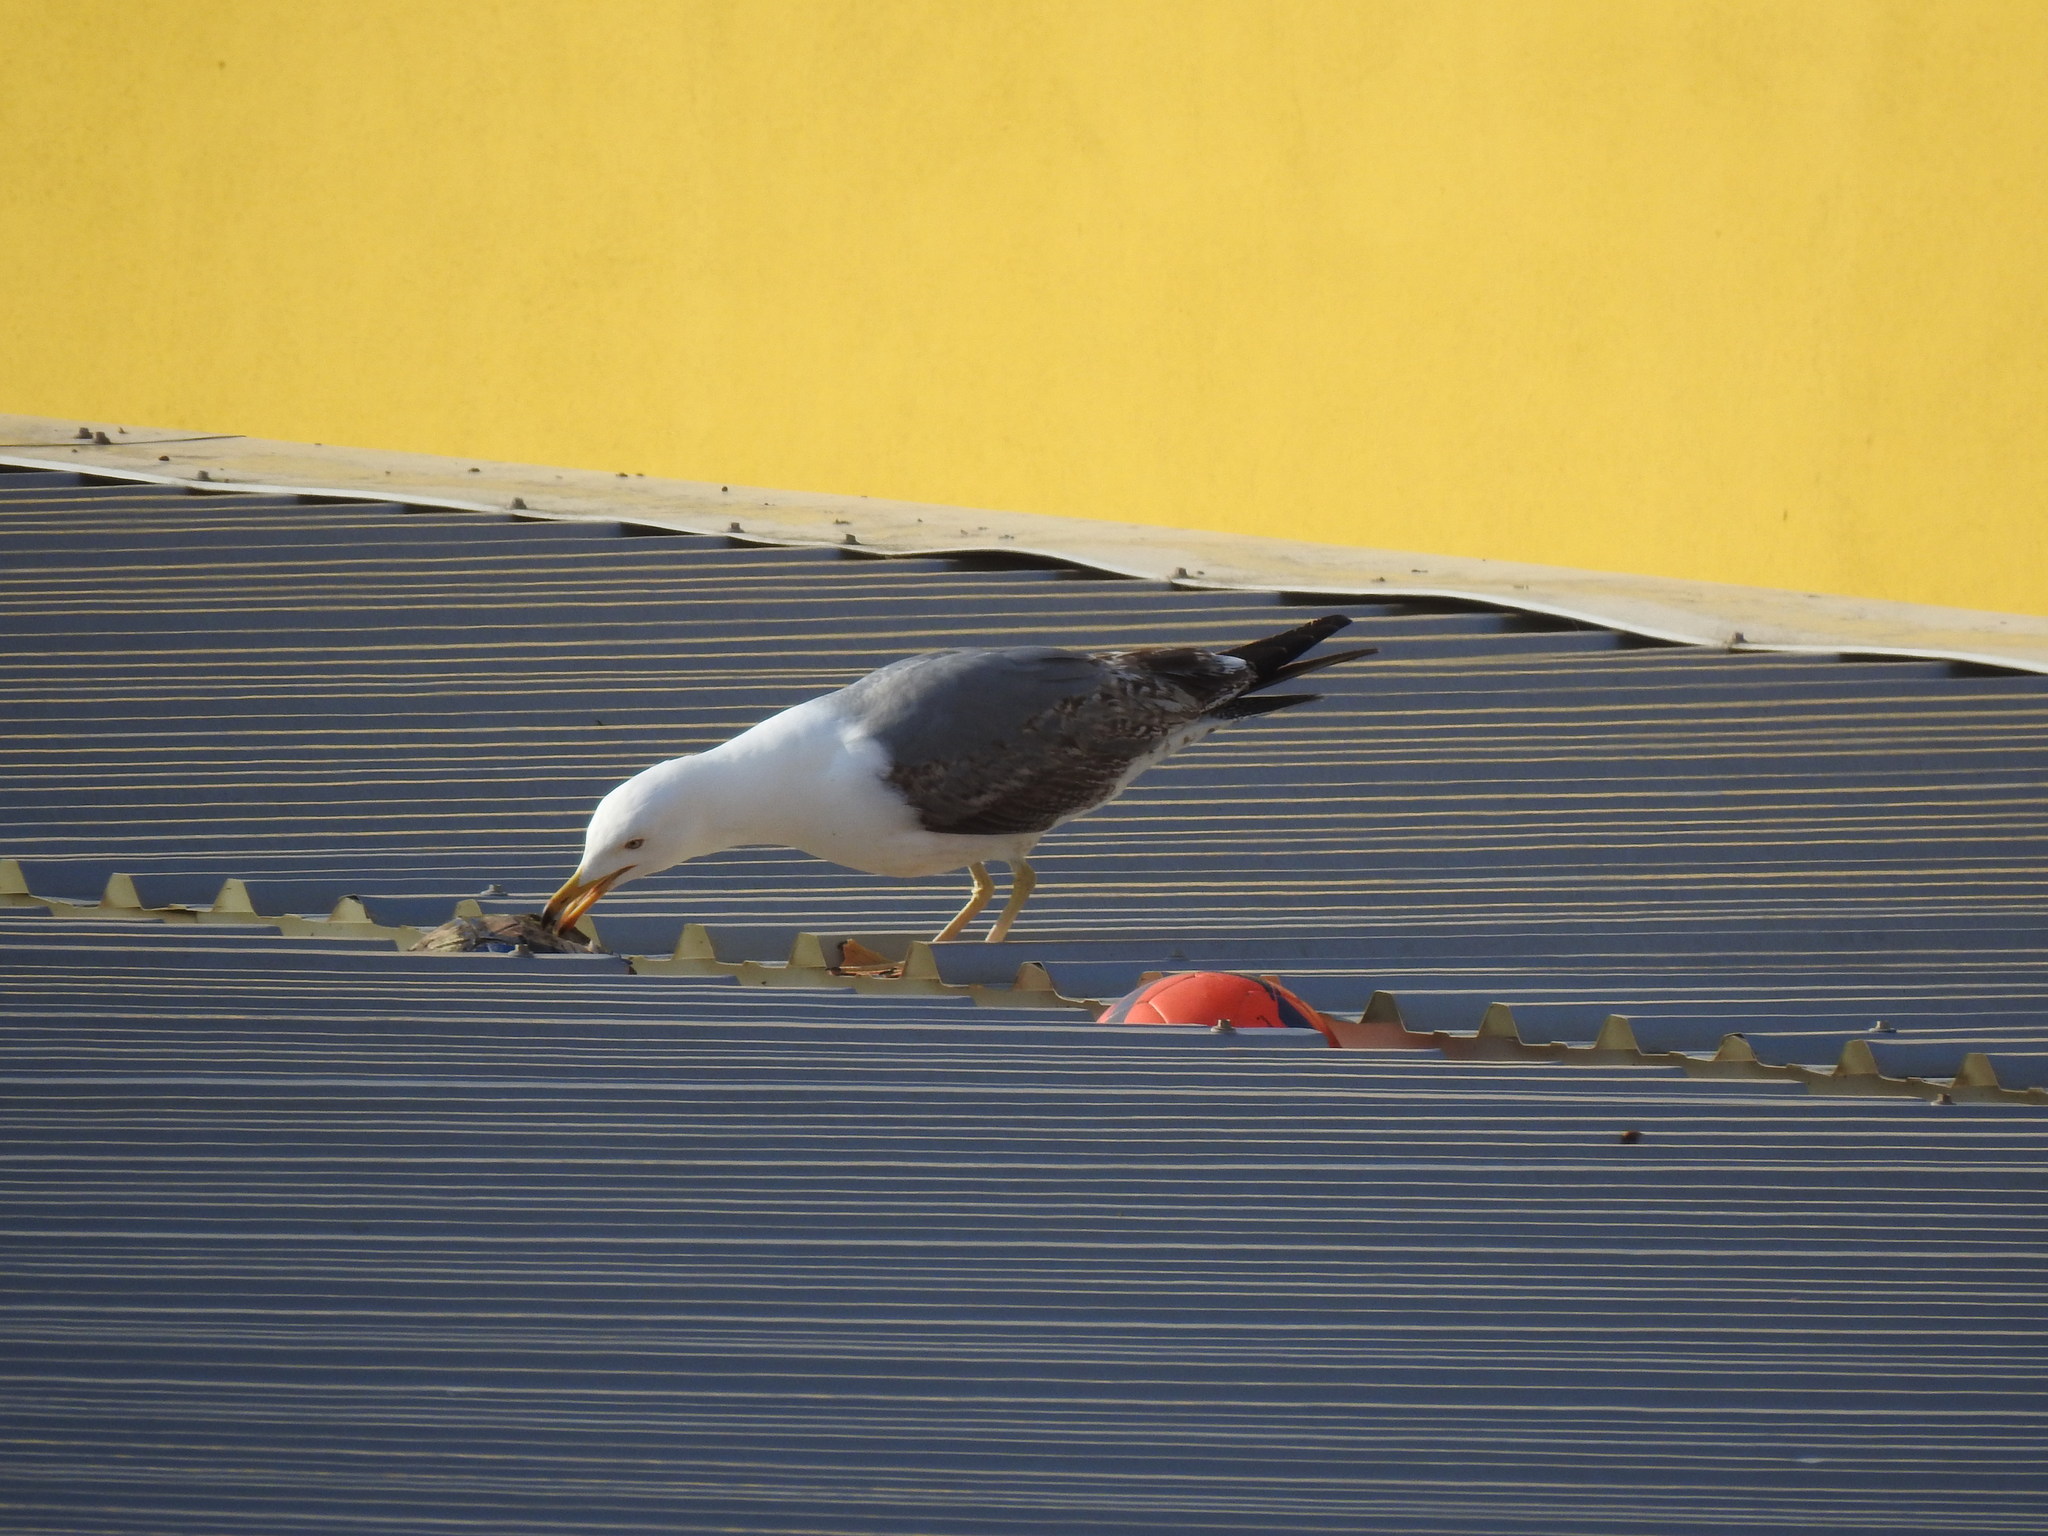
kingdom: Animalia
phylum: Chordata
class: Aves
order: Charadriiformes
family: Laridae
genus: Larus
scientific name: Larus michahellis
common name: Yellow-legged gull
